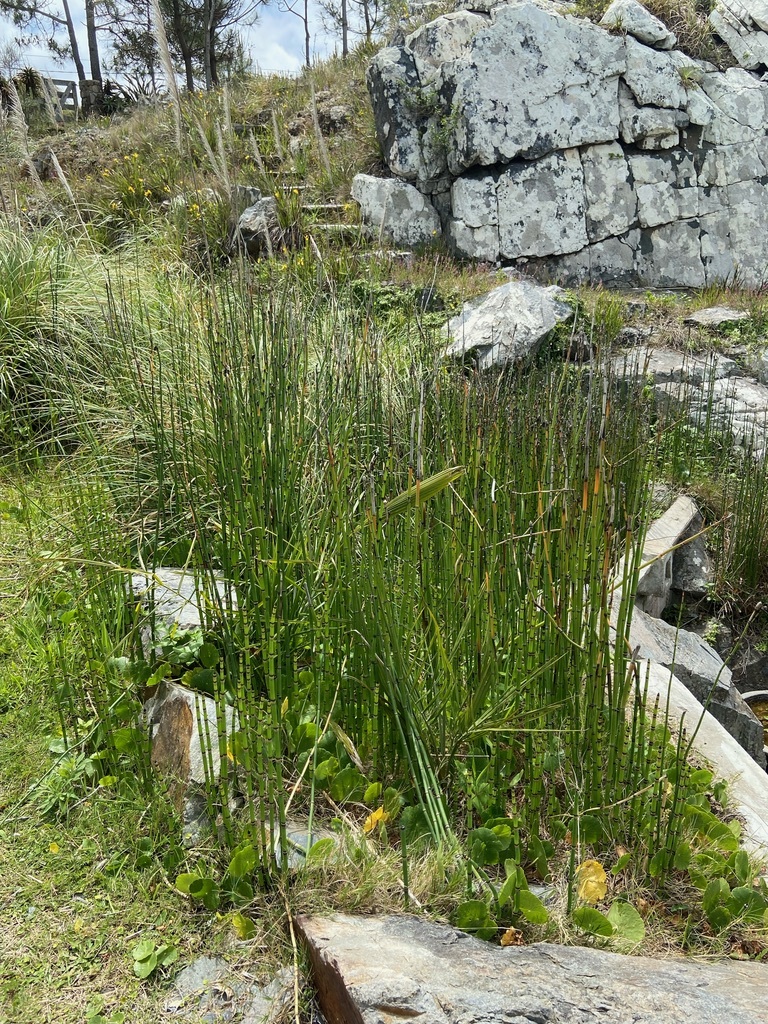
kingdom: Plantae
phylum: Tracheophyta
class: Polypodiopsida
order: Equisetales
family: Equisetaceae
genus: Equisetum
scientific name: Equisetum giganteum
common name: Giant horsetail
